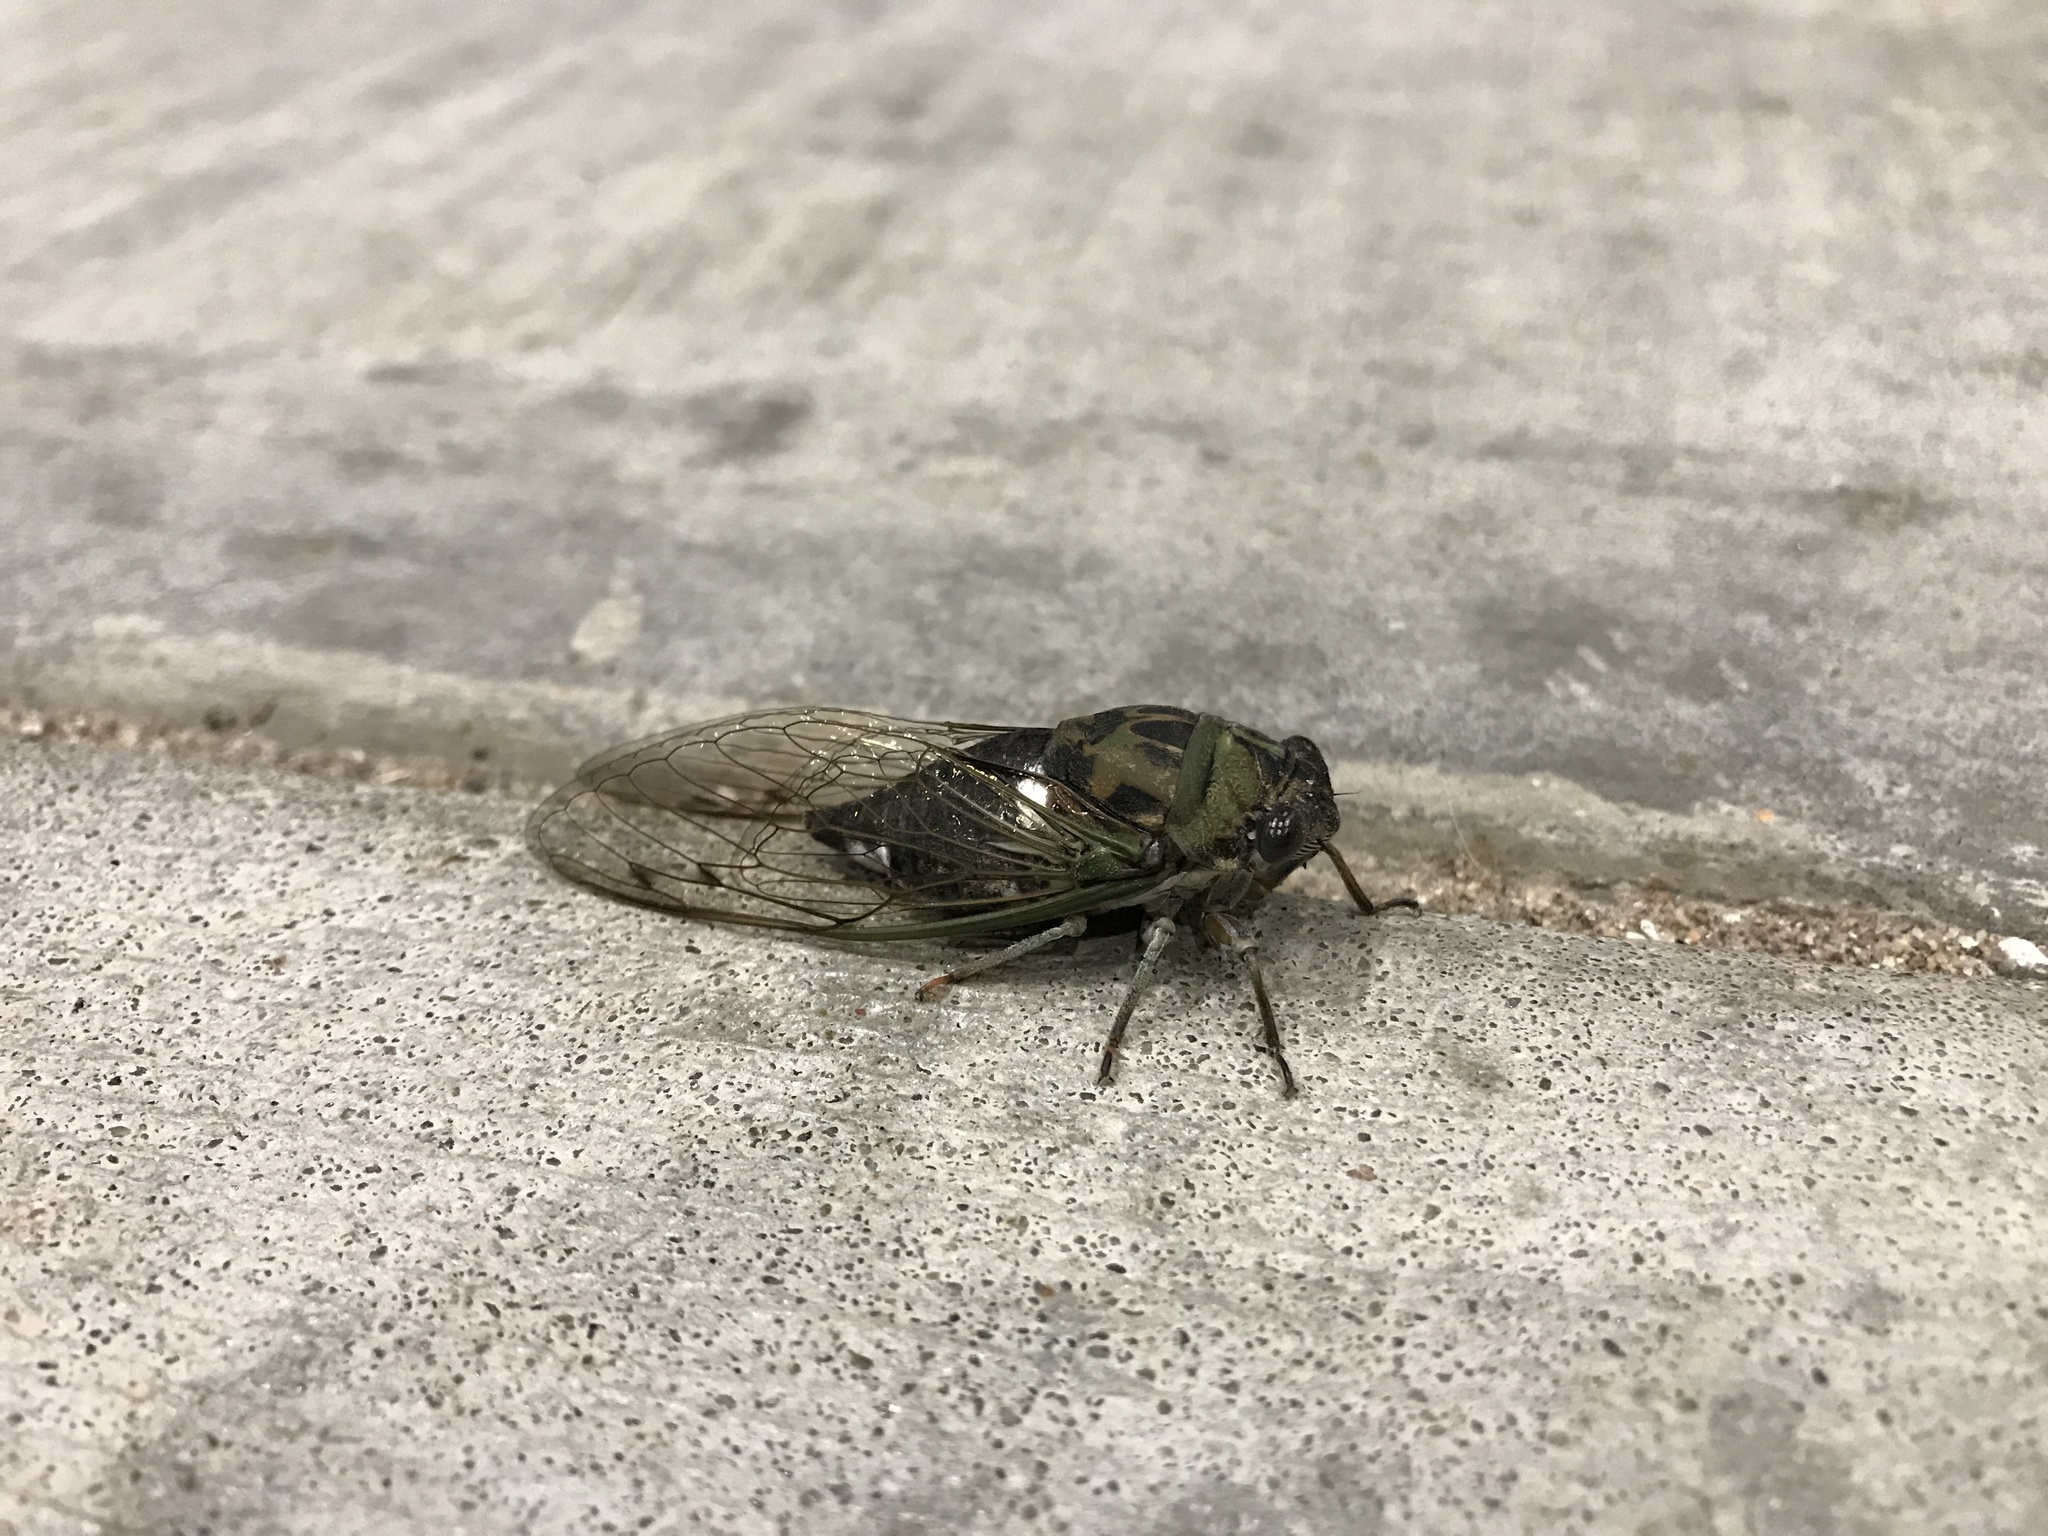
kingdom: Animalia
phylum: Arthropoda
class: Insecta
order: Hemiptera
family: Cicadidae
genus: Neotibicen
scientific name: Neotibicen pruinosus
